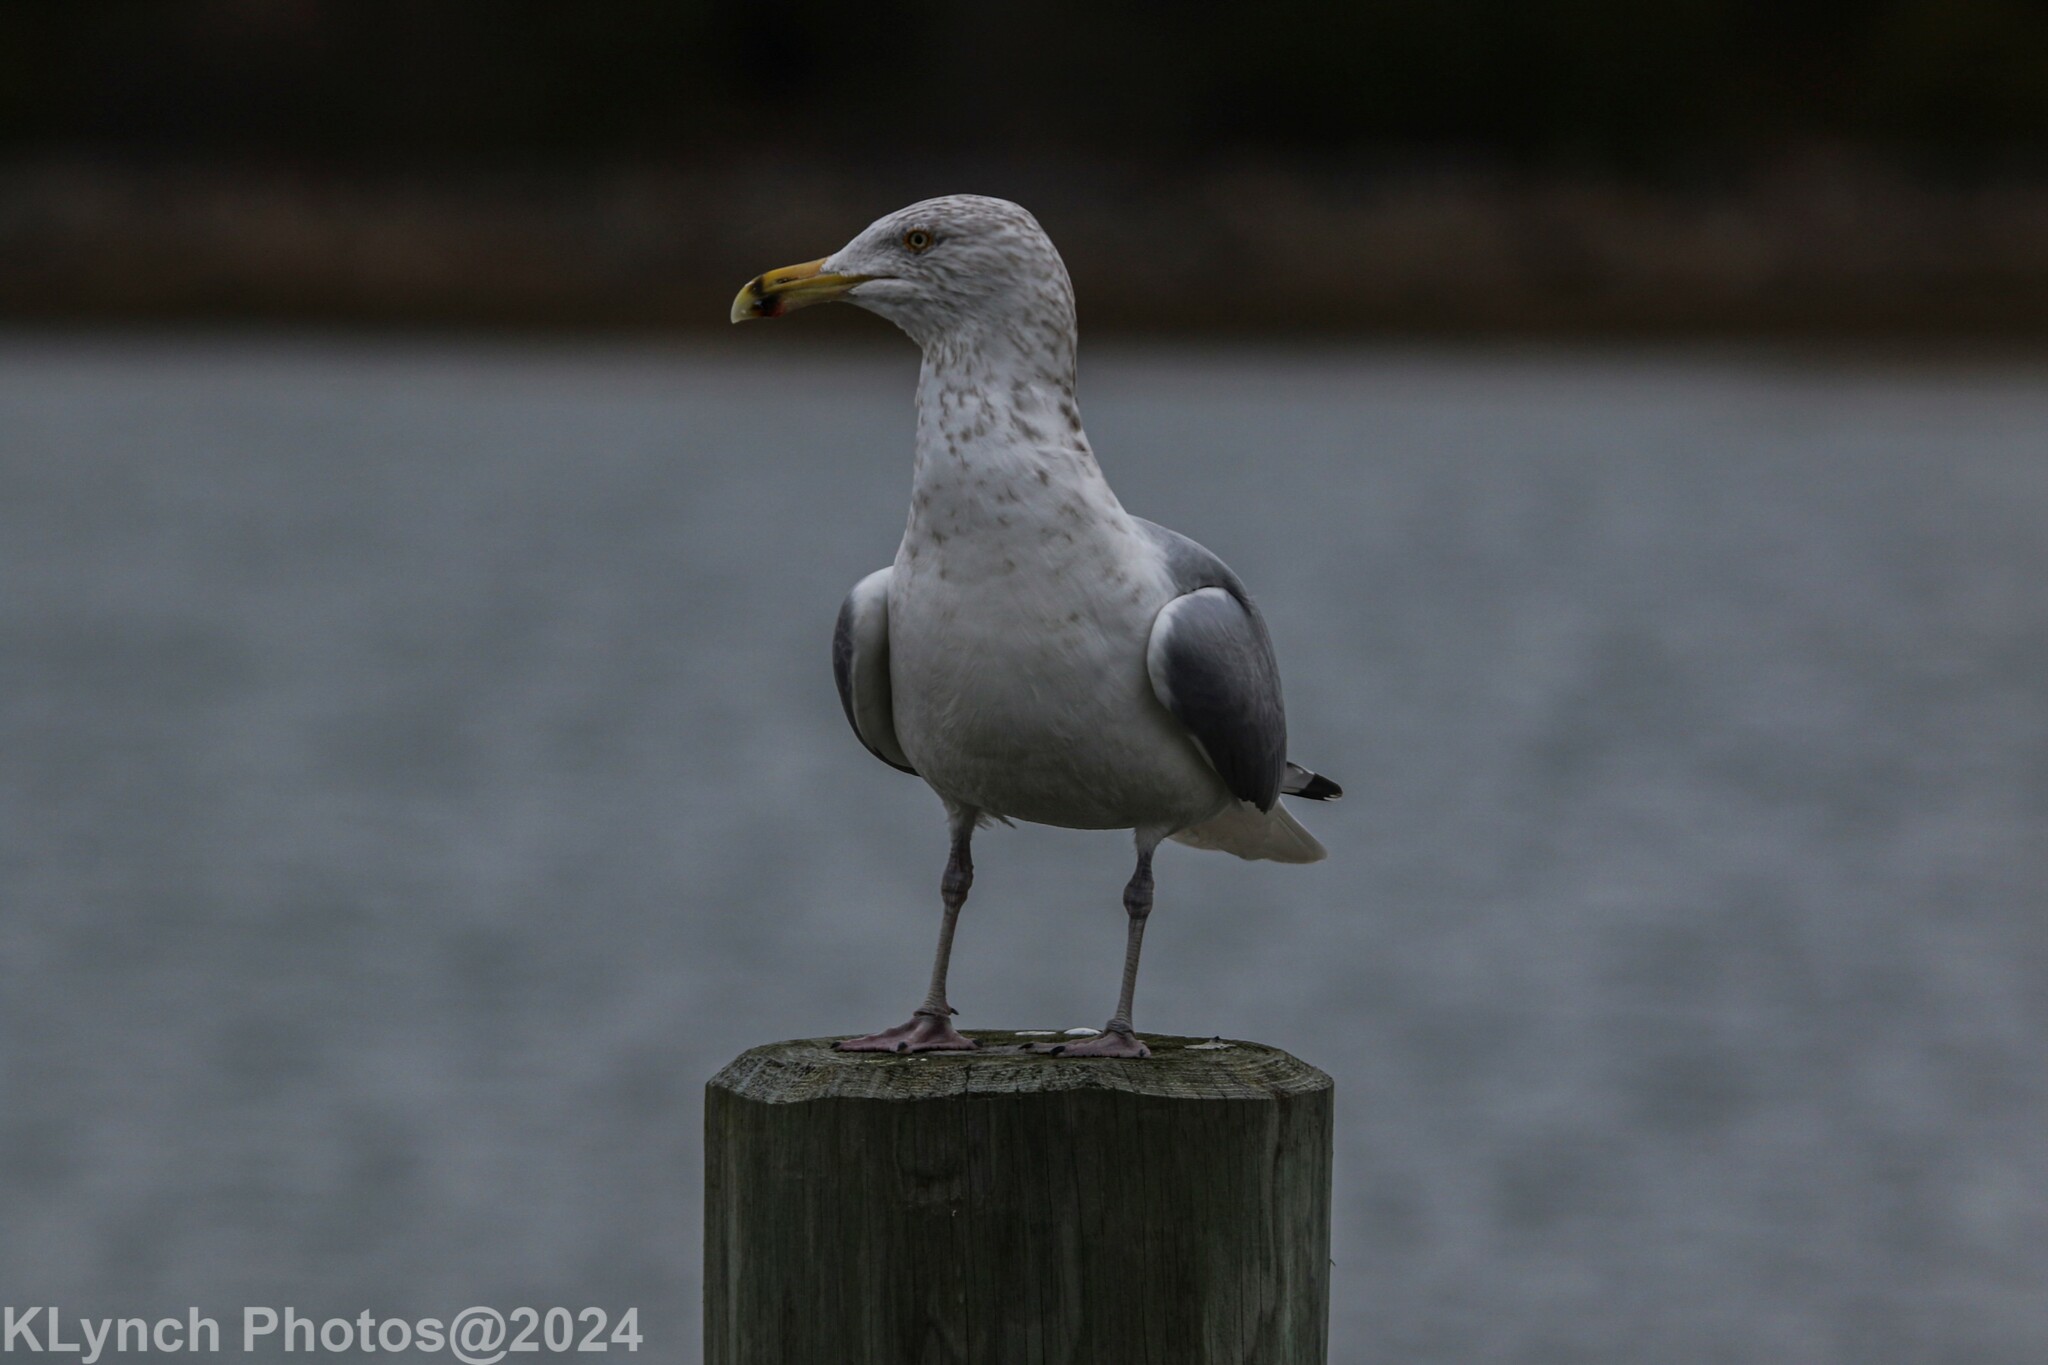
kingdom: Animalia
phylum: Chordata
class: Aves
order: Charadriiformes
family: Laridae
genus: Larus
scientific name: Larus argentatus
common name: Herring gull
